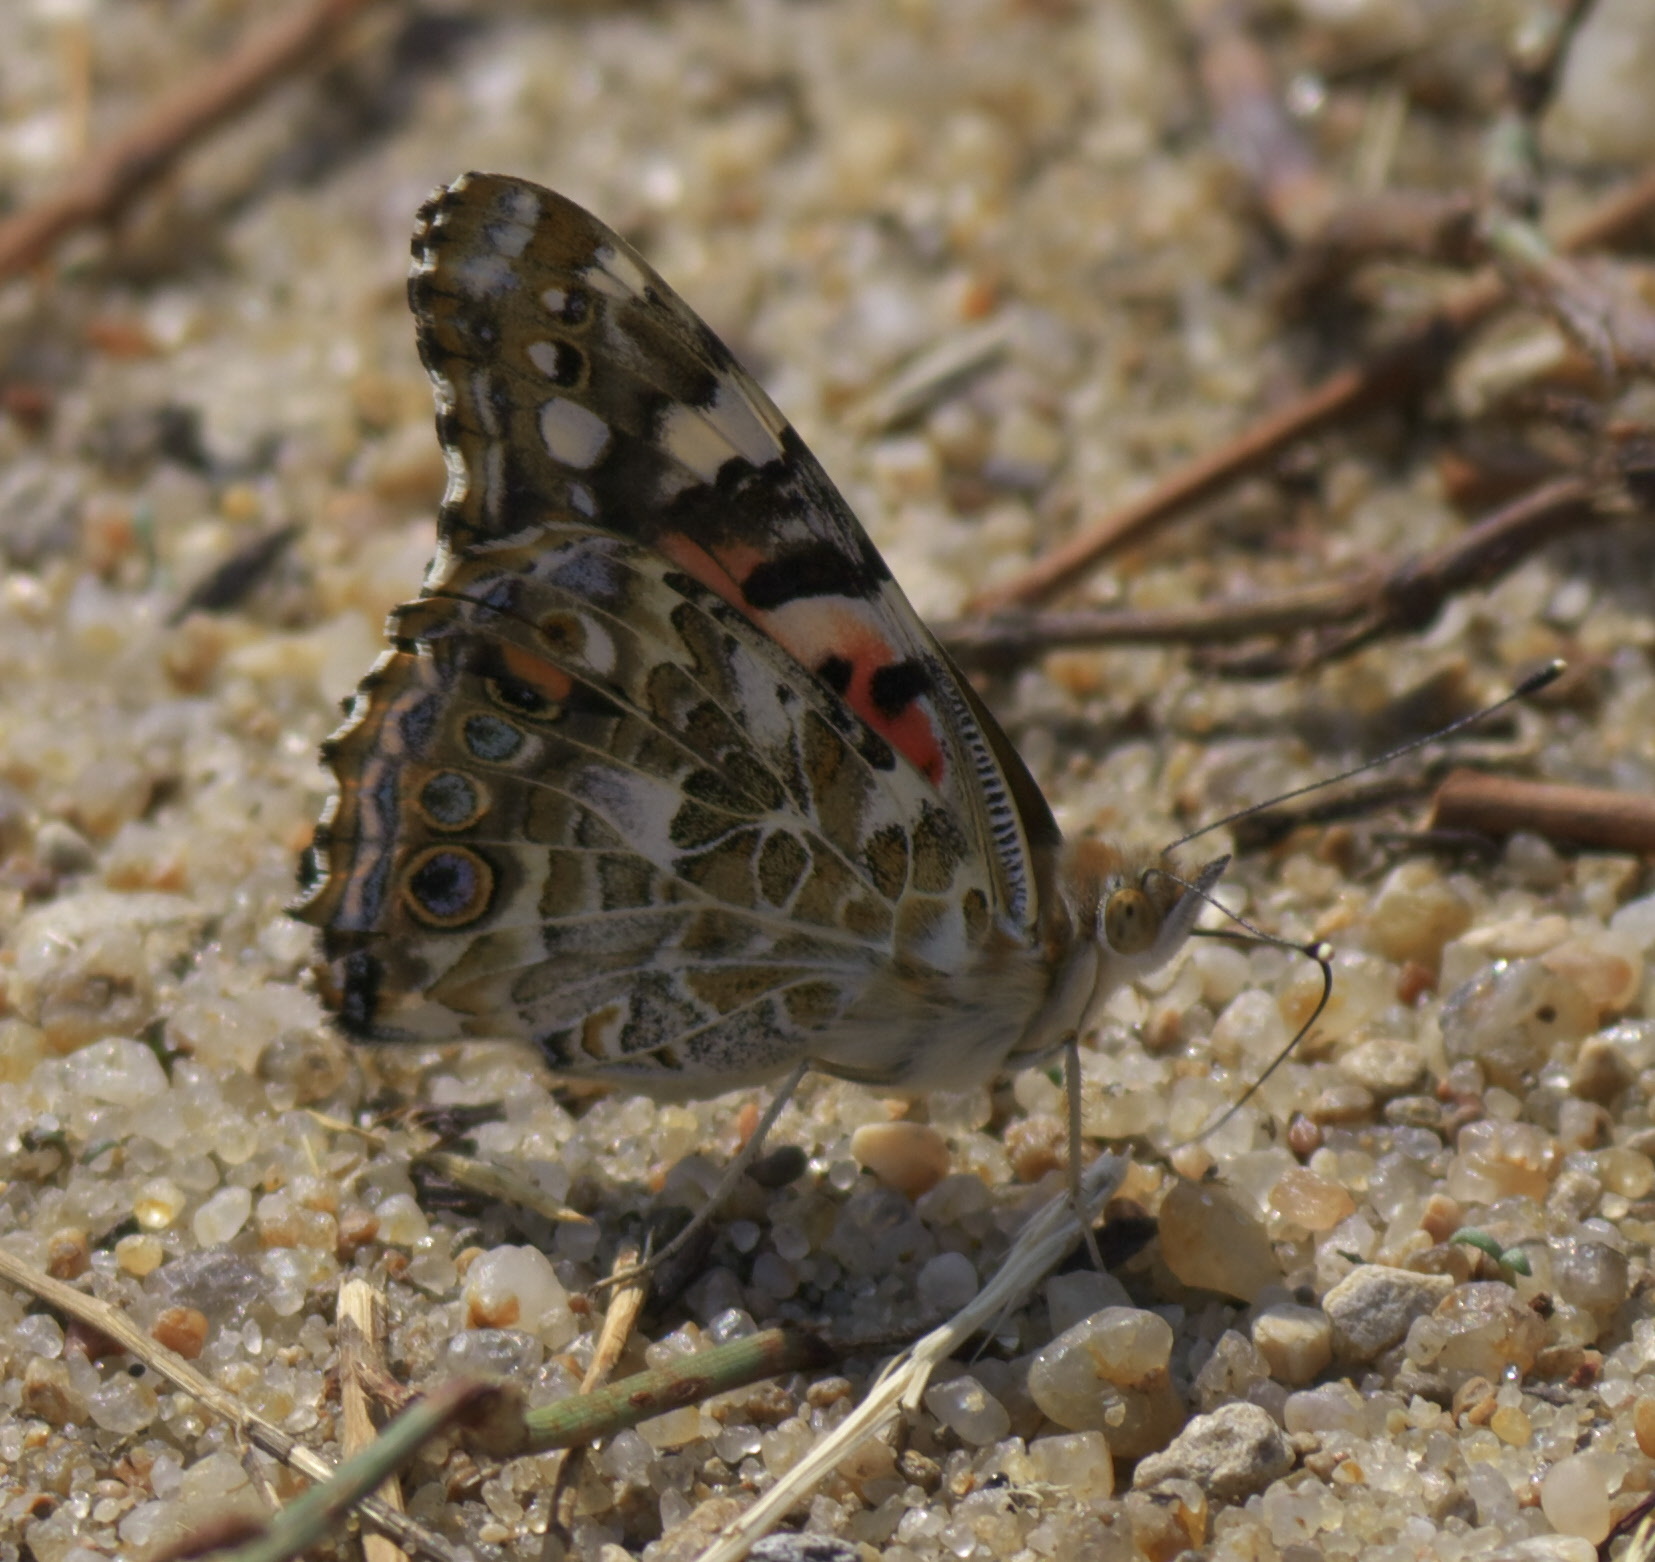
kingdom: Animalia
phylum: Arthropoda
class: Insecta
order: Lepidoptera
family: Nymphalidae
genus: Vanessa
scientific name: Vanessa cardui
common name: Painted lady
